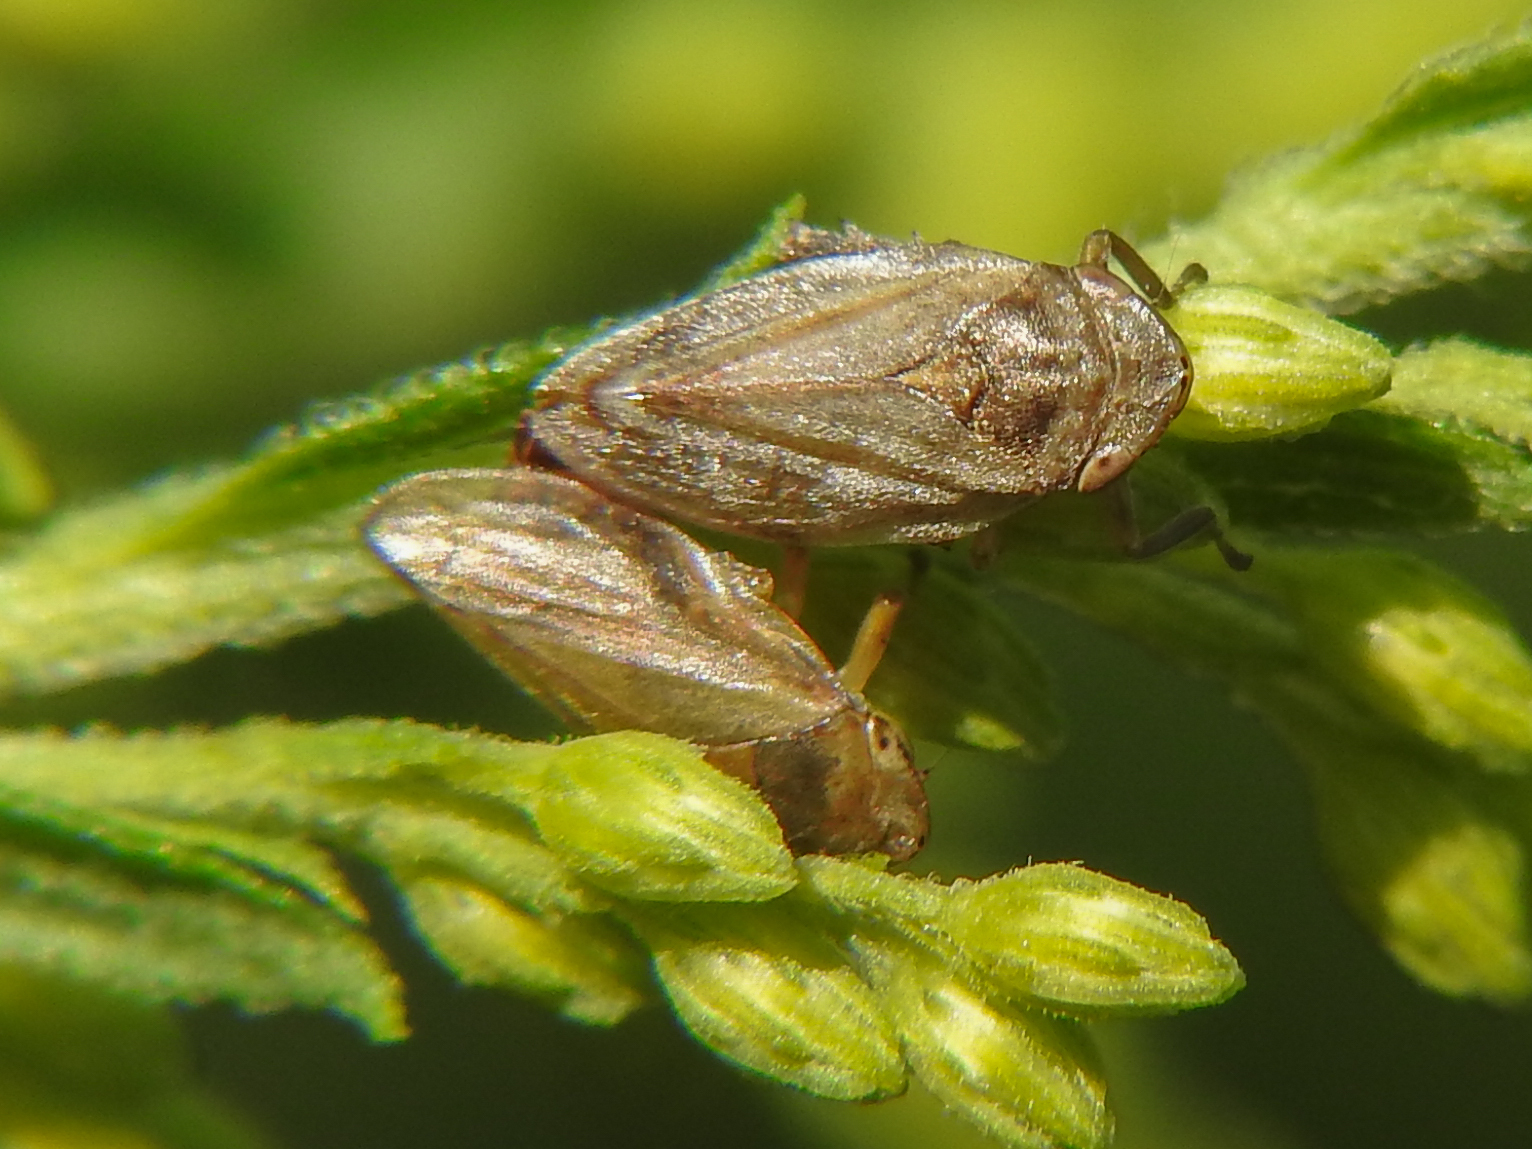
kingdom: Animalia
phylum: Arthropoda
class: Insecta
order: Hemiptera
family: Aphrophoridae
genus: Philaenus
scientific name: Philaenus spumarius
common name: Meadow spittlebug
